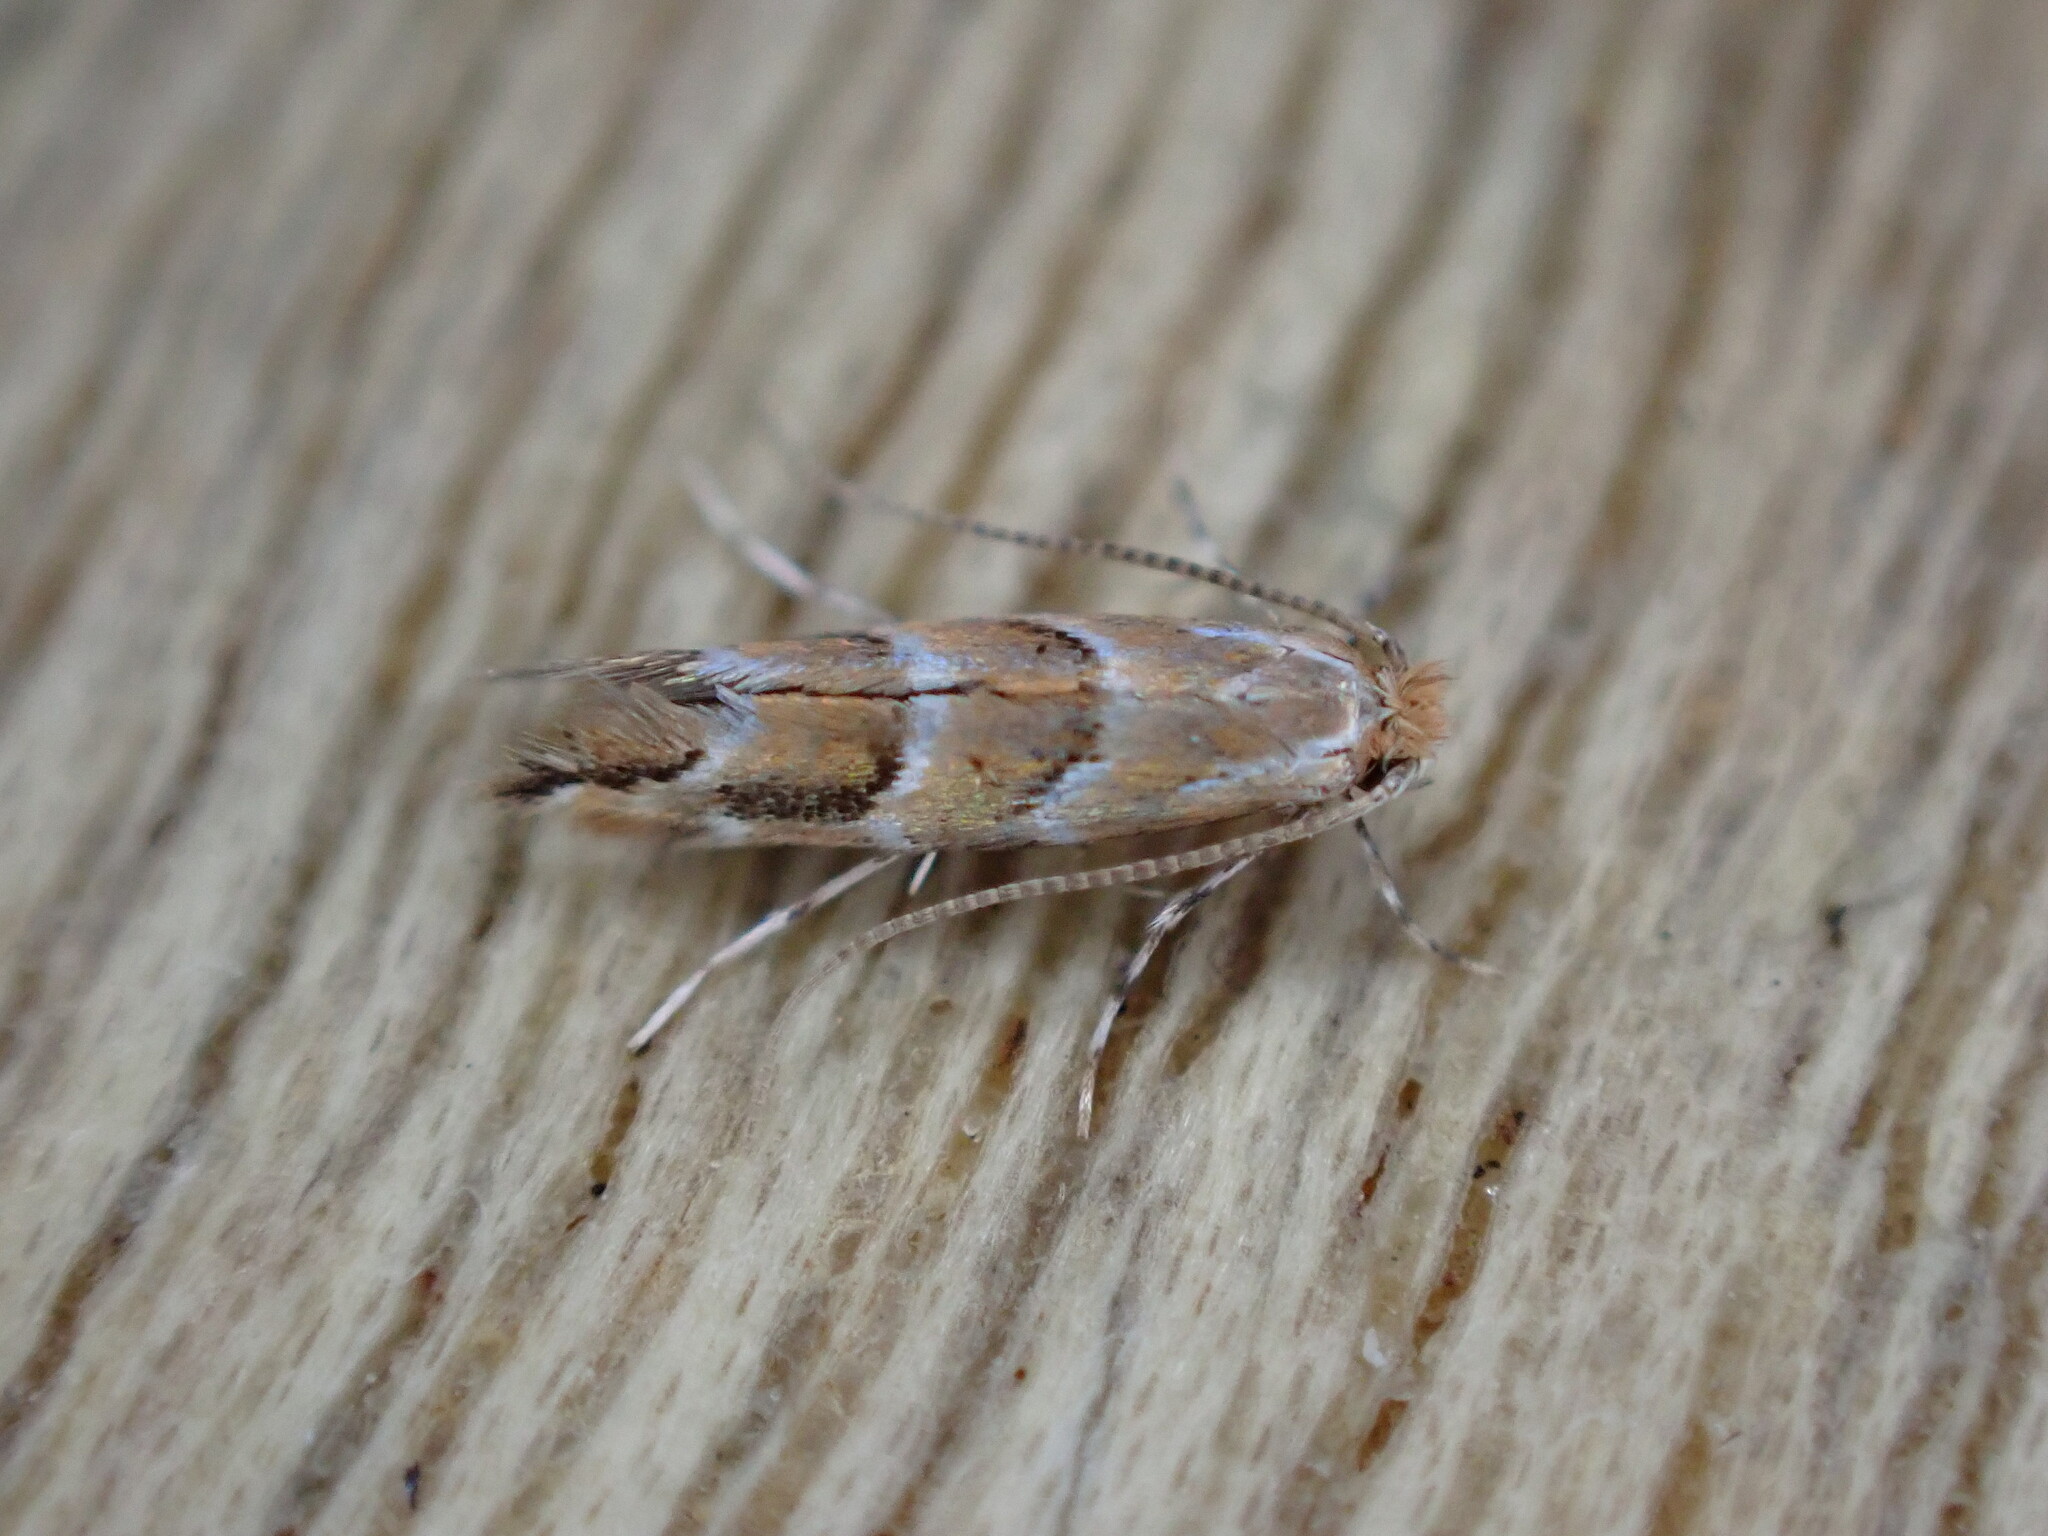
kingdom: Animalia
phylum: Arthropoda
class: Insecta
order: Lepidoptera
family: Gracillariidae
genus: Cameraria
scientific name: Cameraria ohridella
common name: Horse-chestnut leaf-miner
